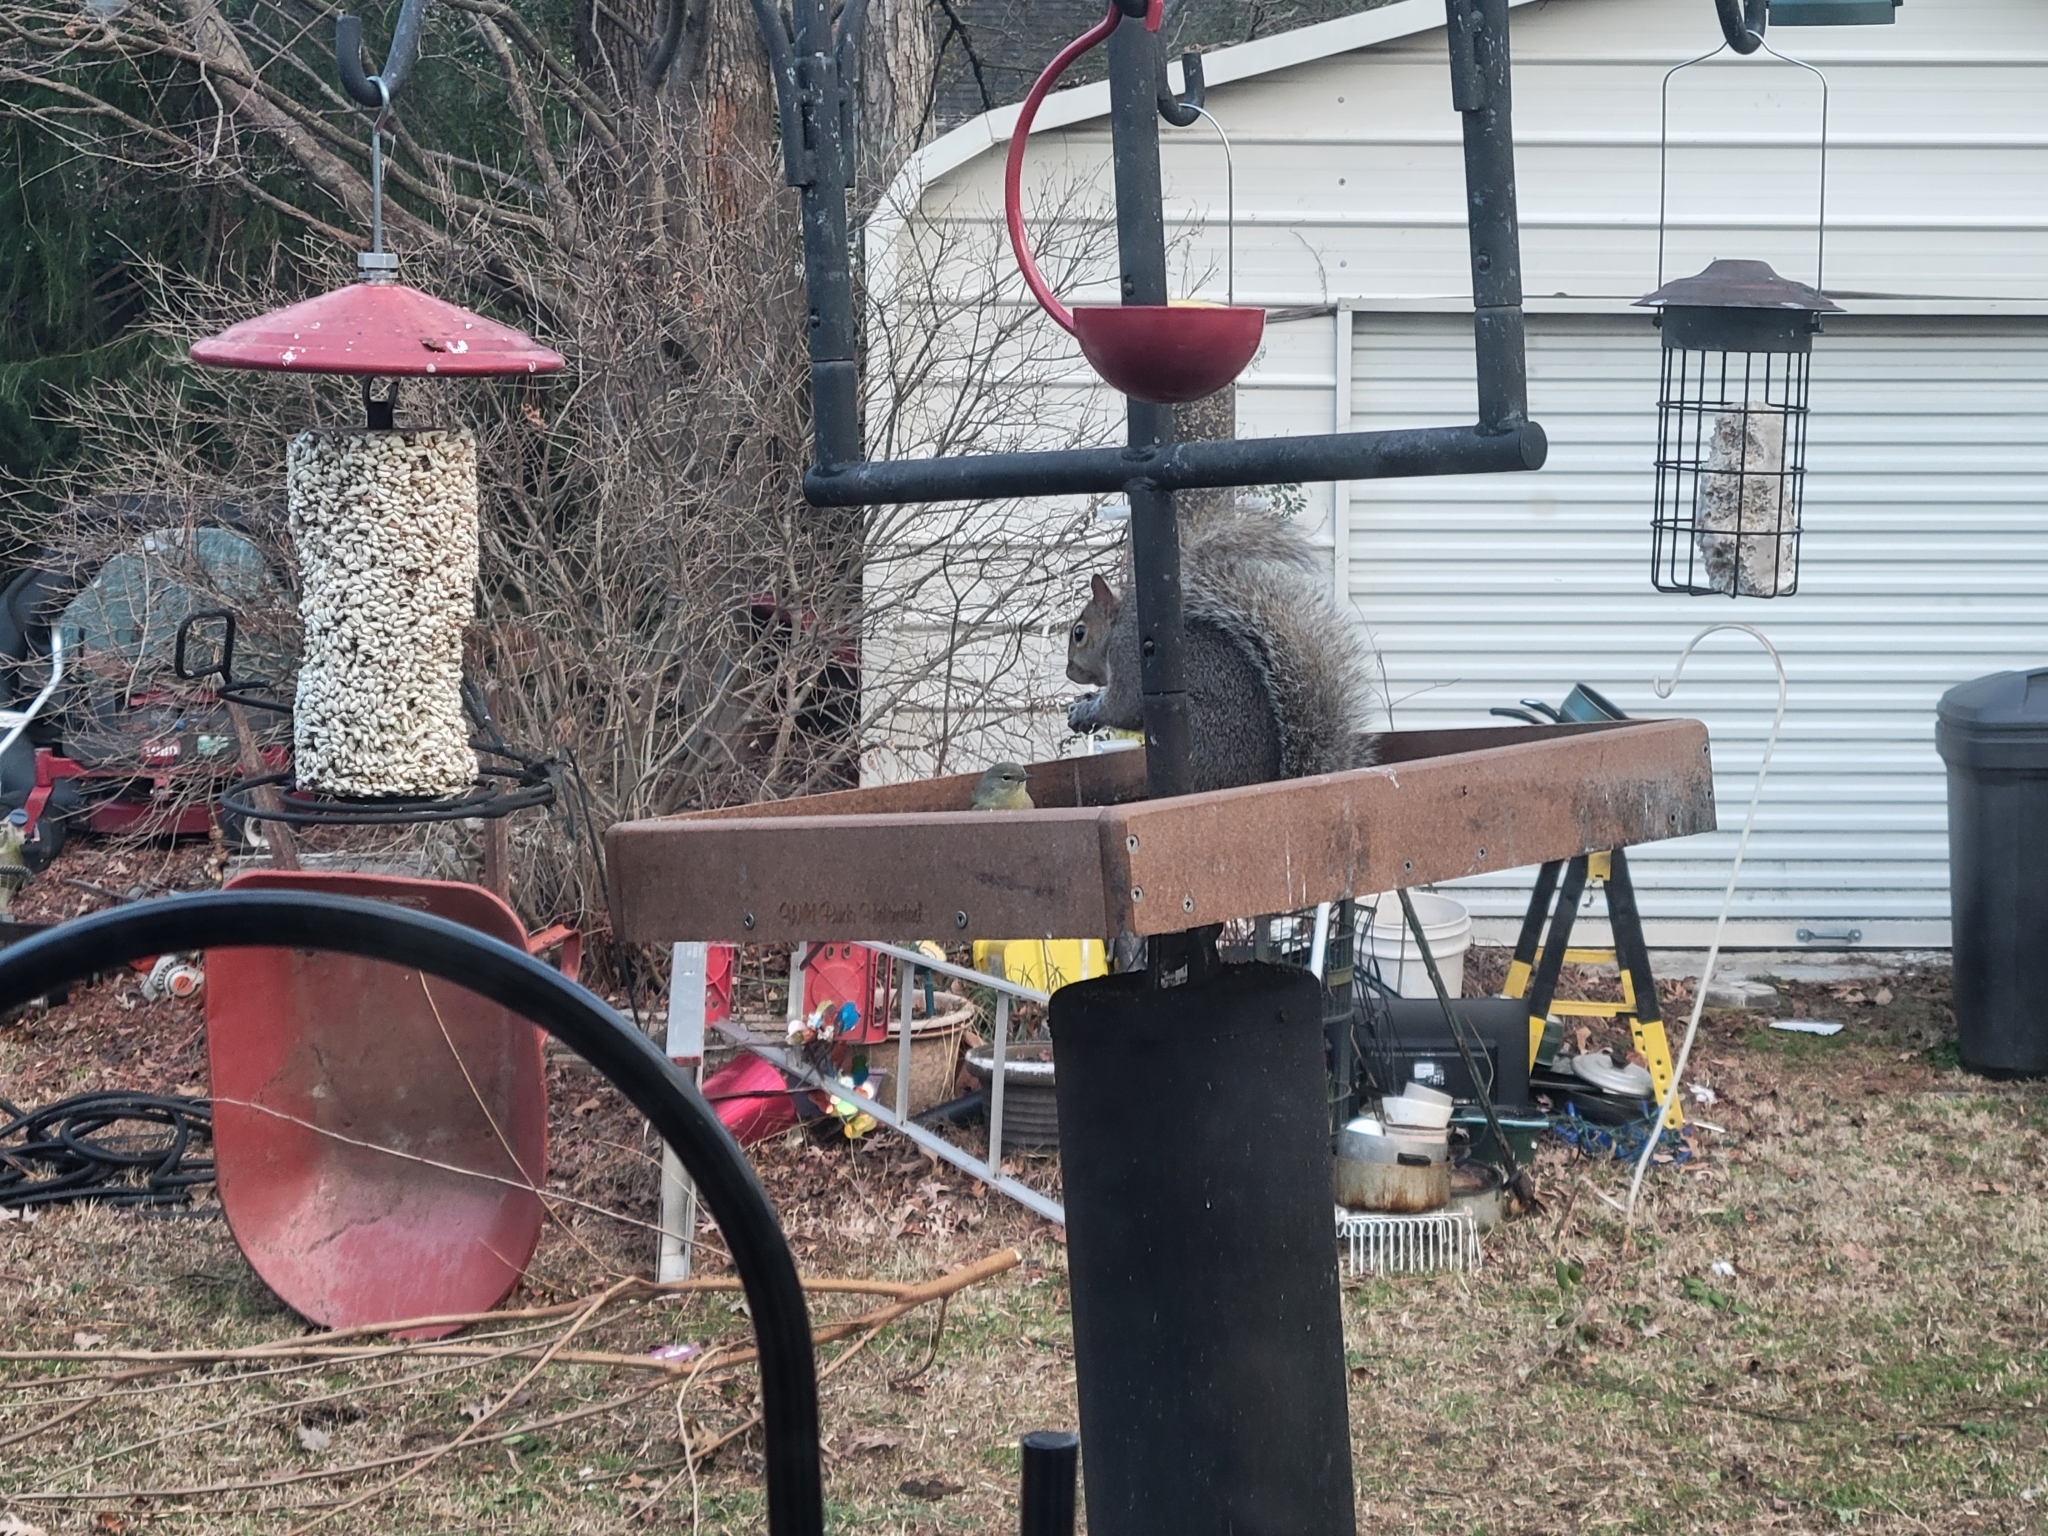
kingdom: Animalia
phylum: Chordata
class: Mammalia
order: Rodentia
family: Sciuridae
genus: Sciurus
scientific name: Sciurus carolinensis
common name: Eastern gray squirrel
